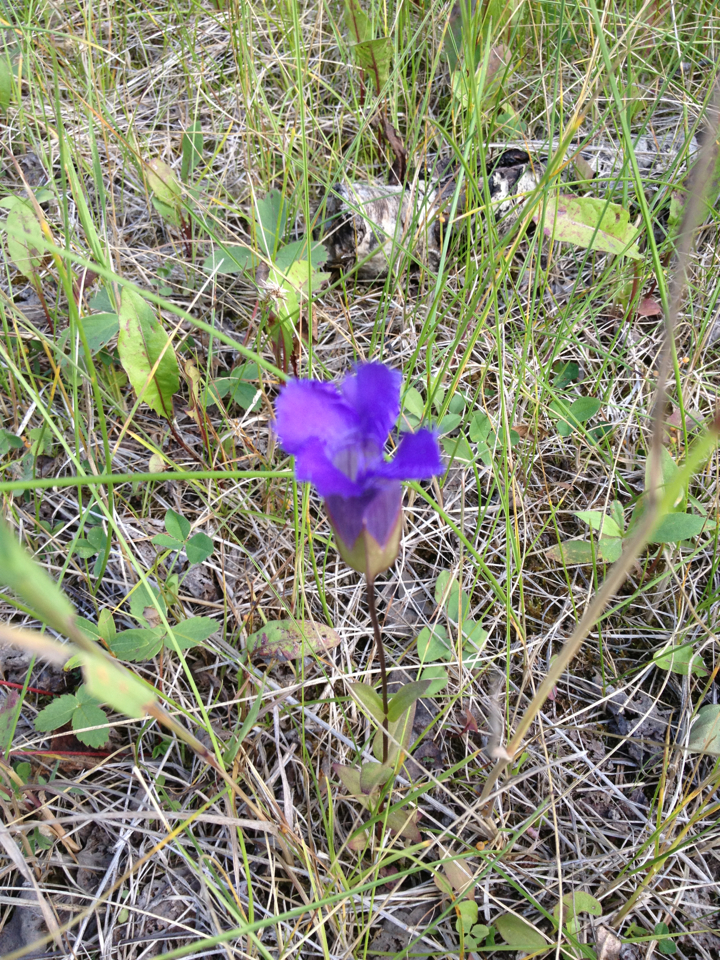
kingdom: Plantae
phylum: Tracheophyta
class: Magnoliopsida
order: Gentianales
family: Gentianaceae
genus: Gentianopsis
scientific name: Gentianopsis virgata
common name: Lesser fringed-gentian
